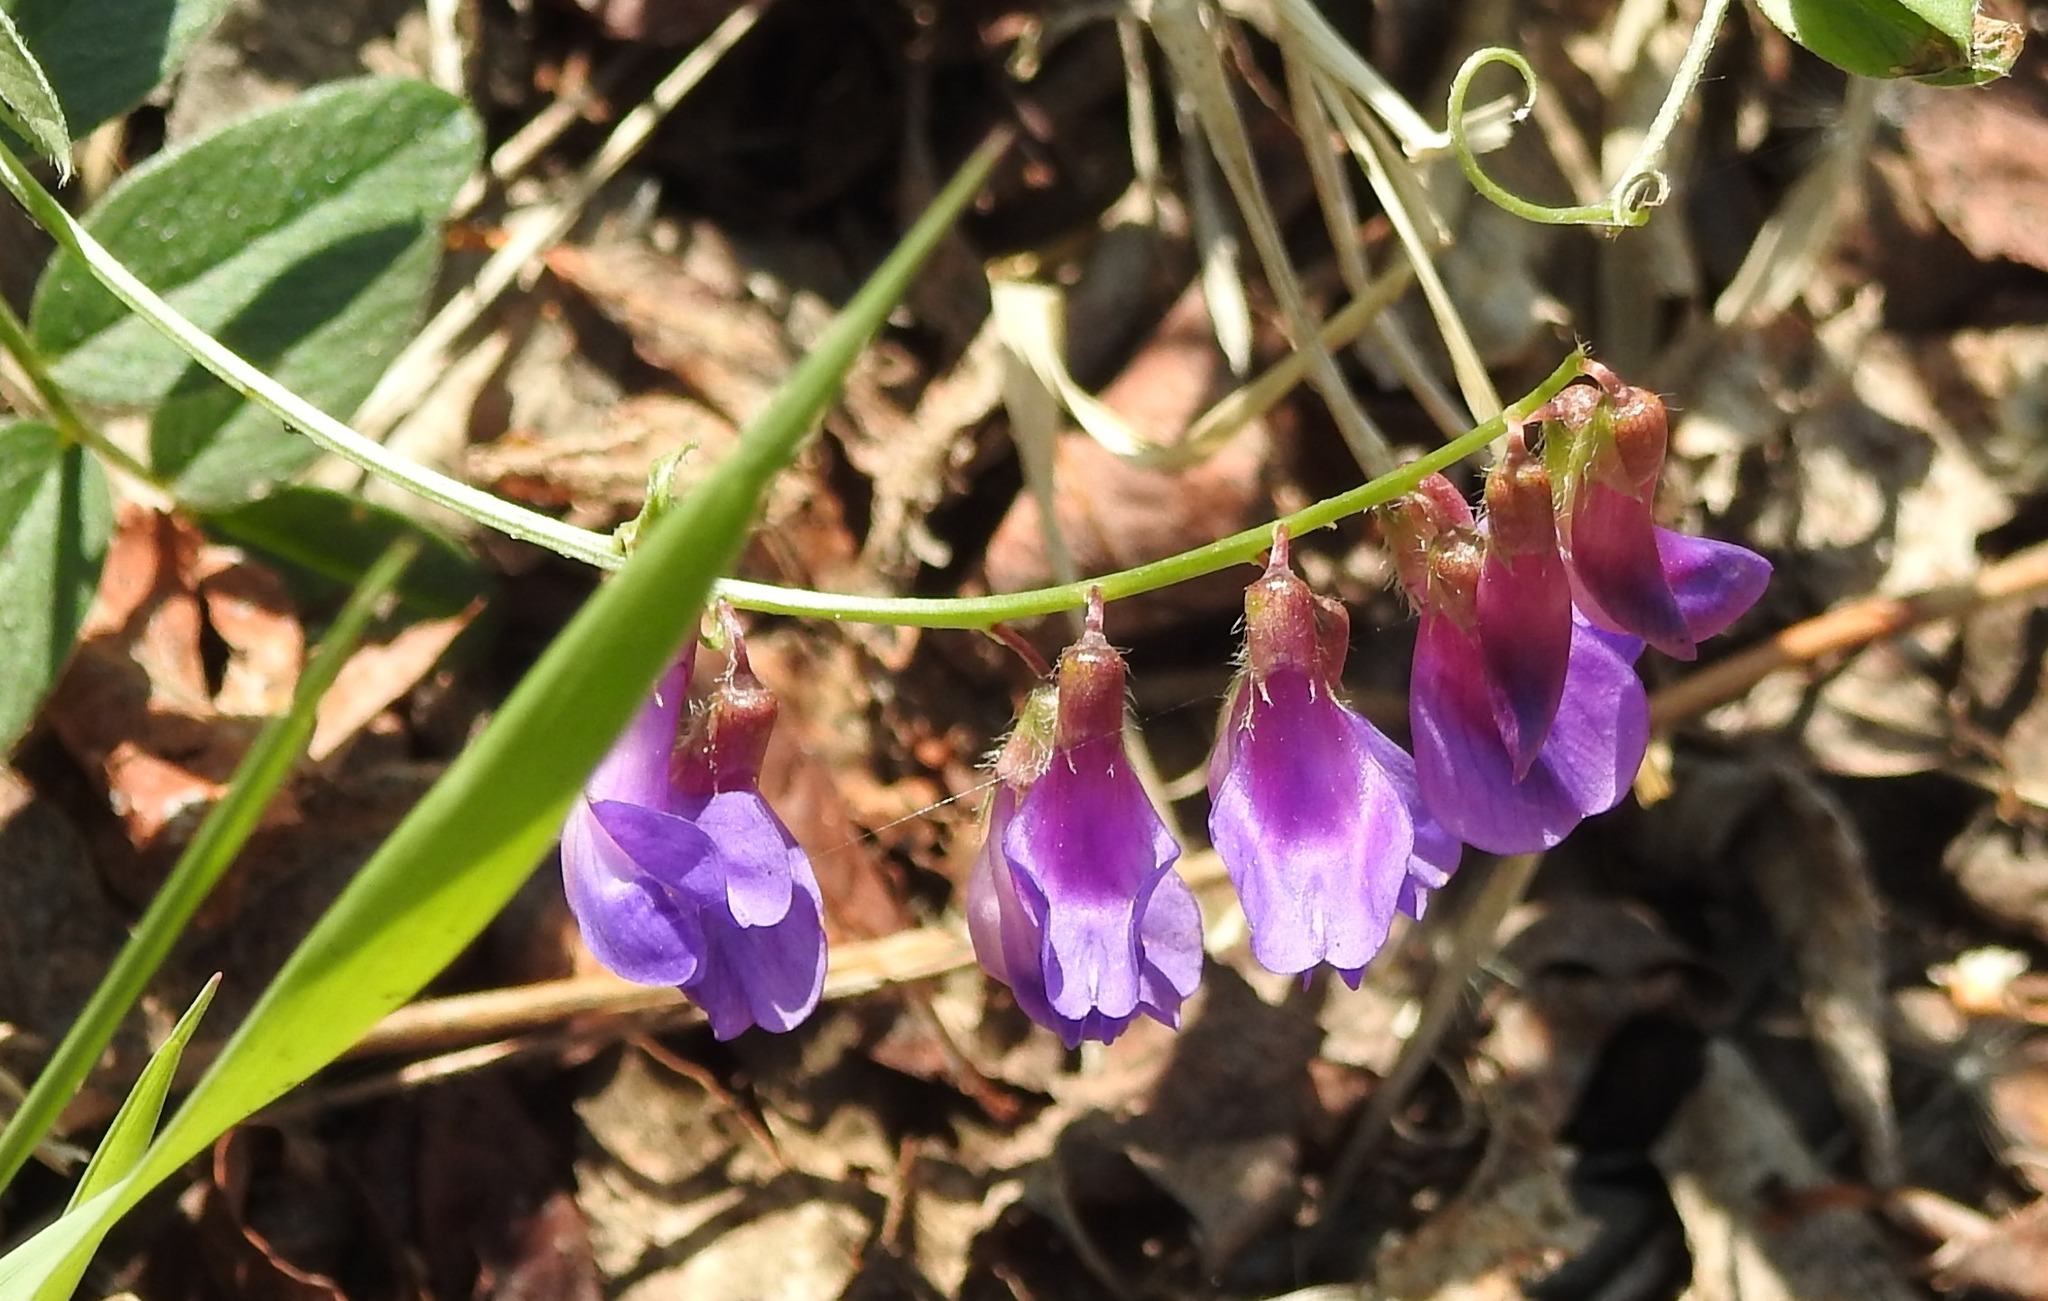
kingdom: Plantae
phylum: Tracheophyta
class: Magnoliopsida
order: Fabales
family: Fabaceae
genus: Vicia
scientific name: Vicia amoena
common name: Cheder ebs
